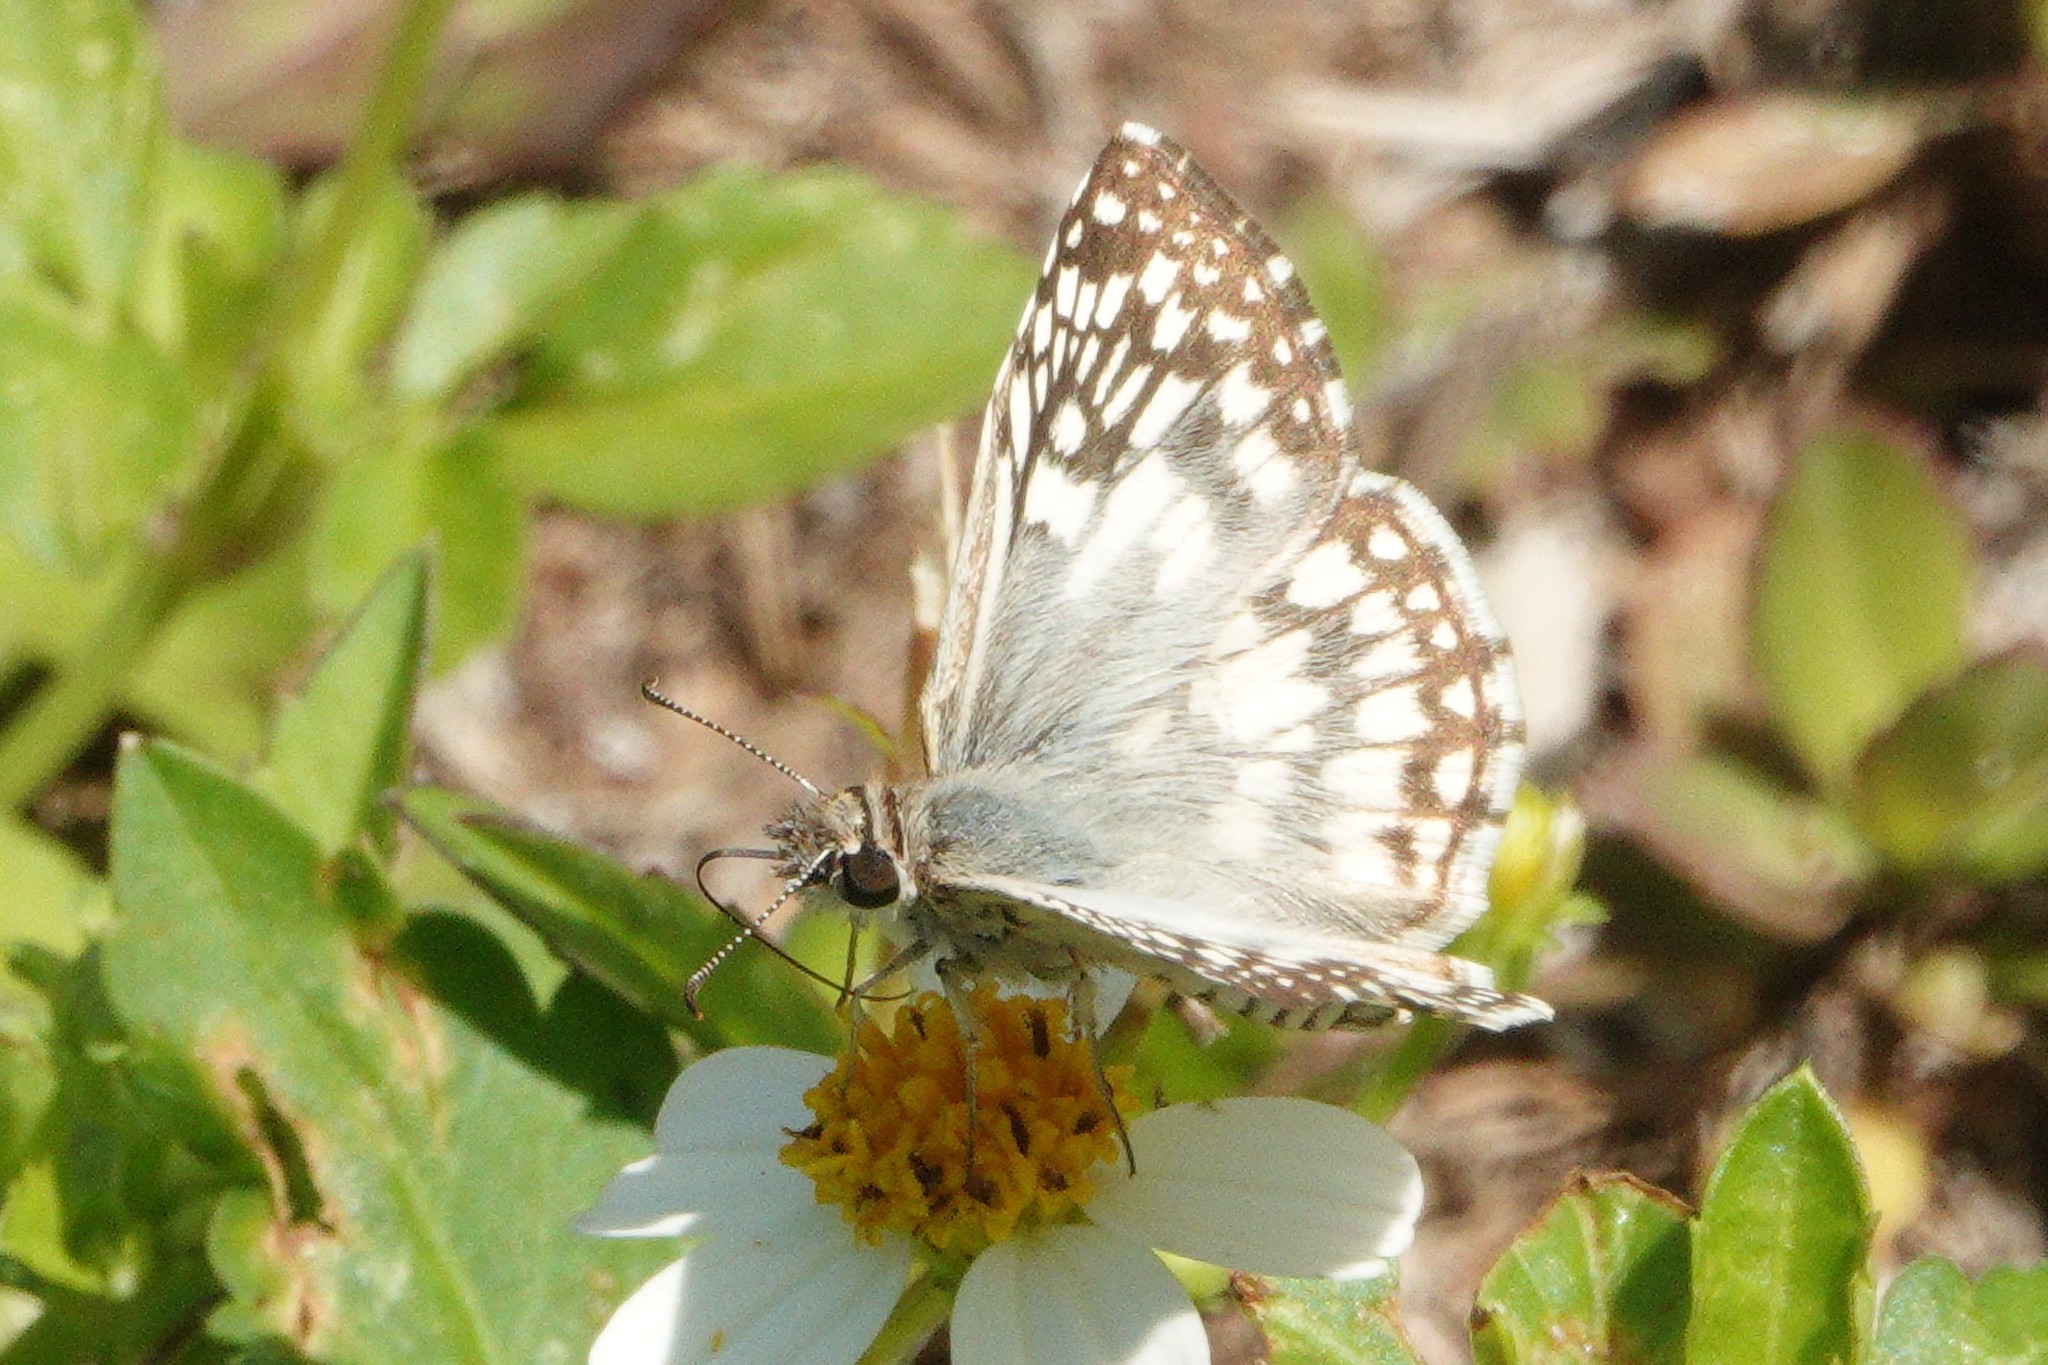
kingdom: Animalia
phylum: Arthropoda
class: Insecta
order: Lepidoptera
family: Hesperiidae
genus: Pyrgus
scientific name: Pyrgus oileus
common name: Tropical checkered-skipper
